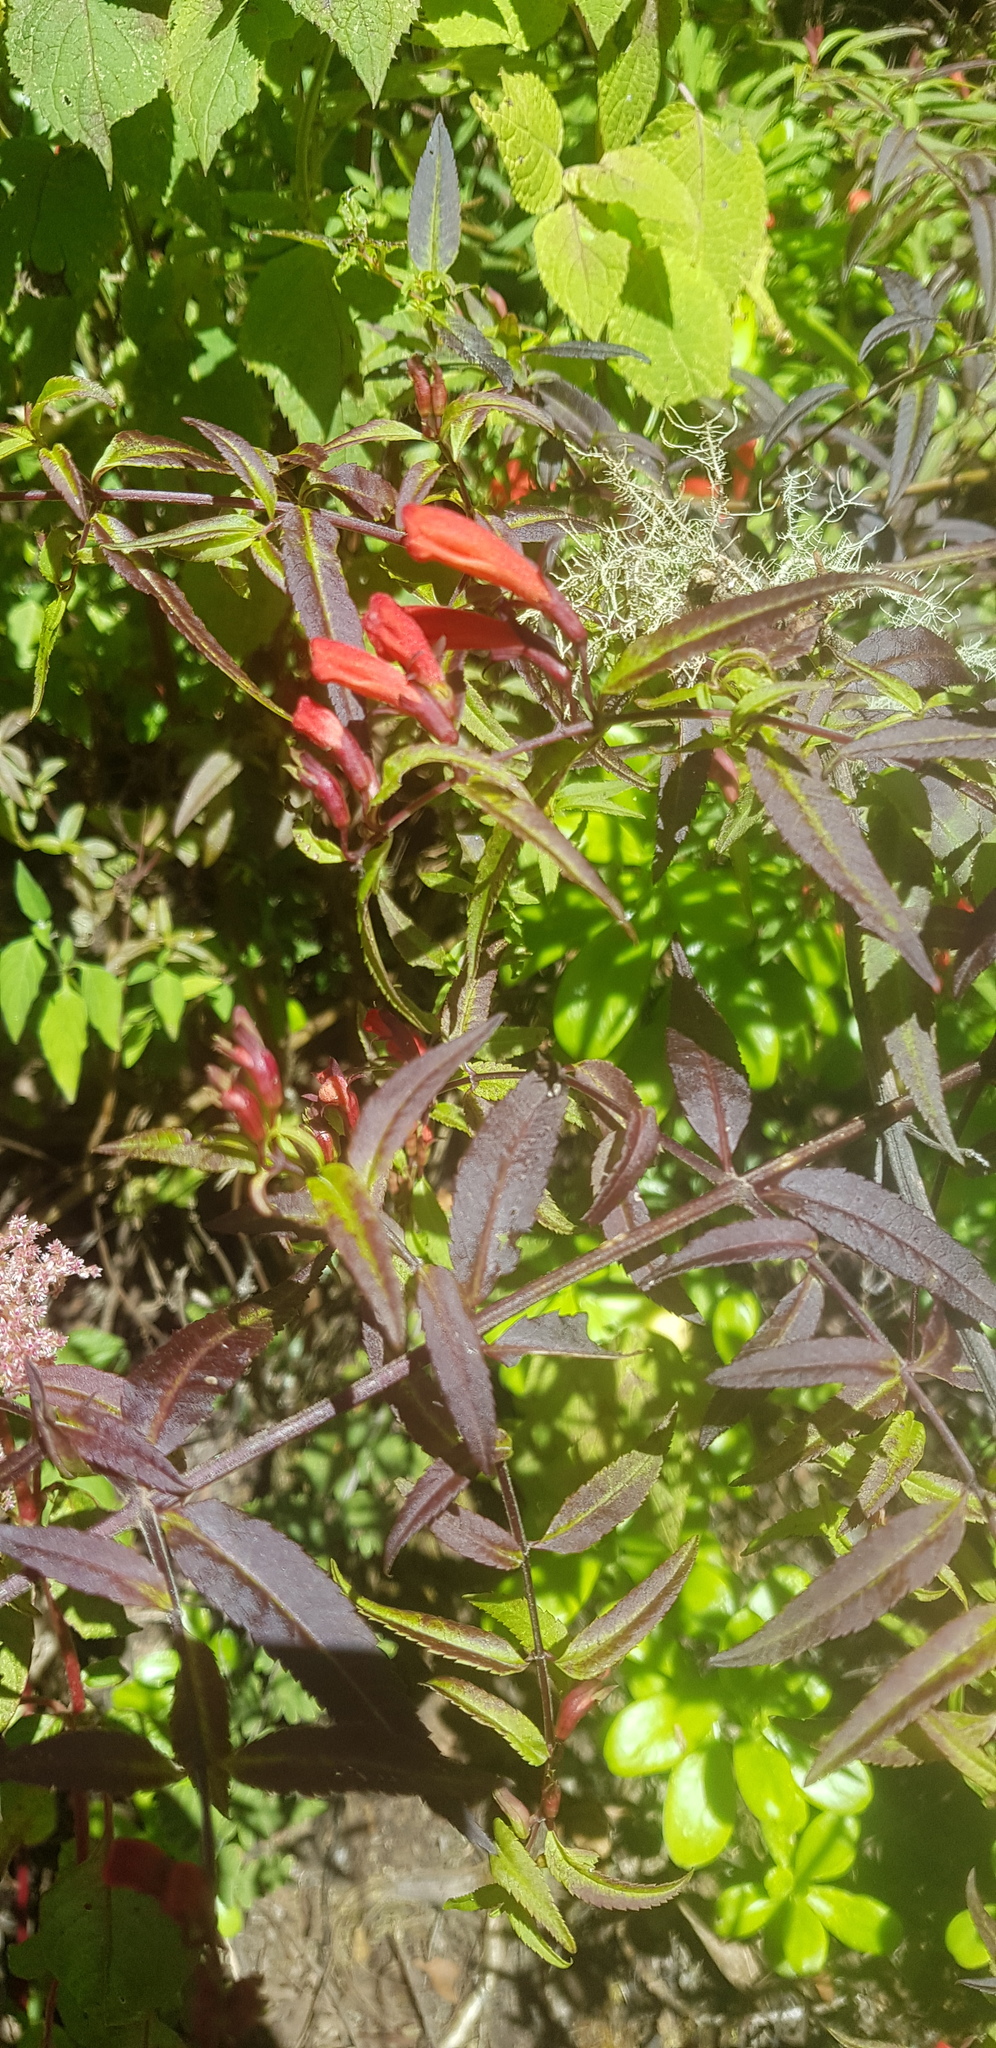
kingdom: Plantae
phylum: Tracheophyta
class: Magnoliopsida
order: Lamiales
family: Orobanchaceae
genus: Lamourouxia
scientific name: Lamourouxia xalapensis
